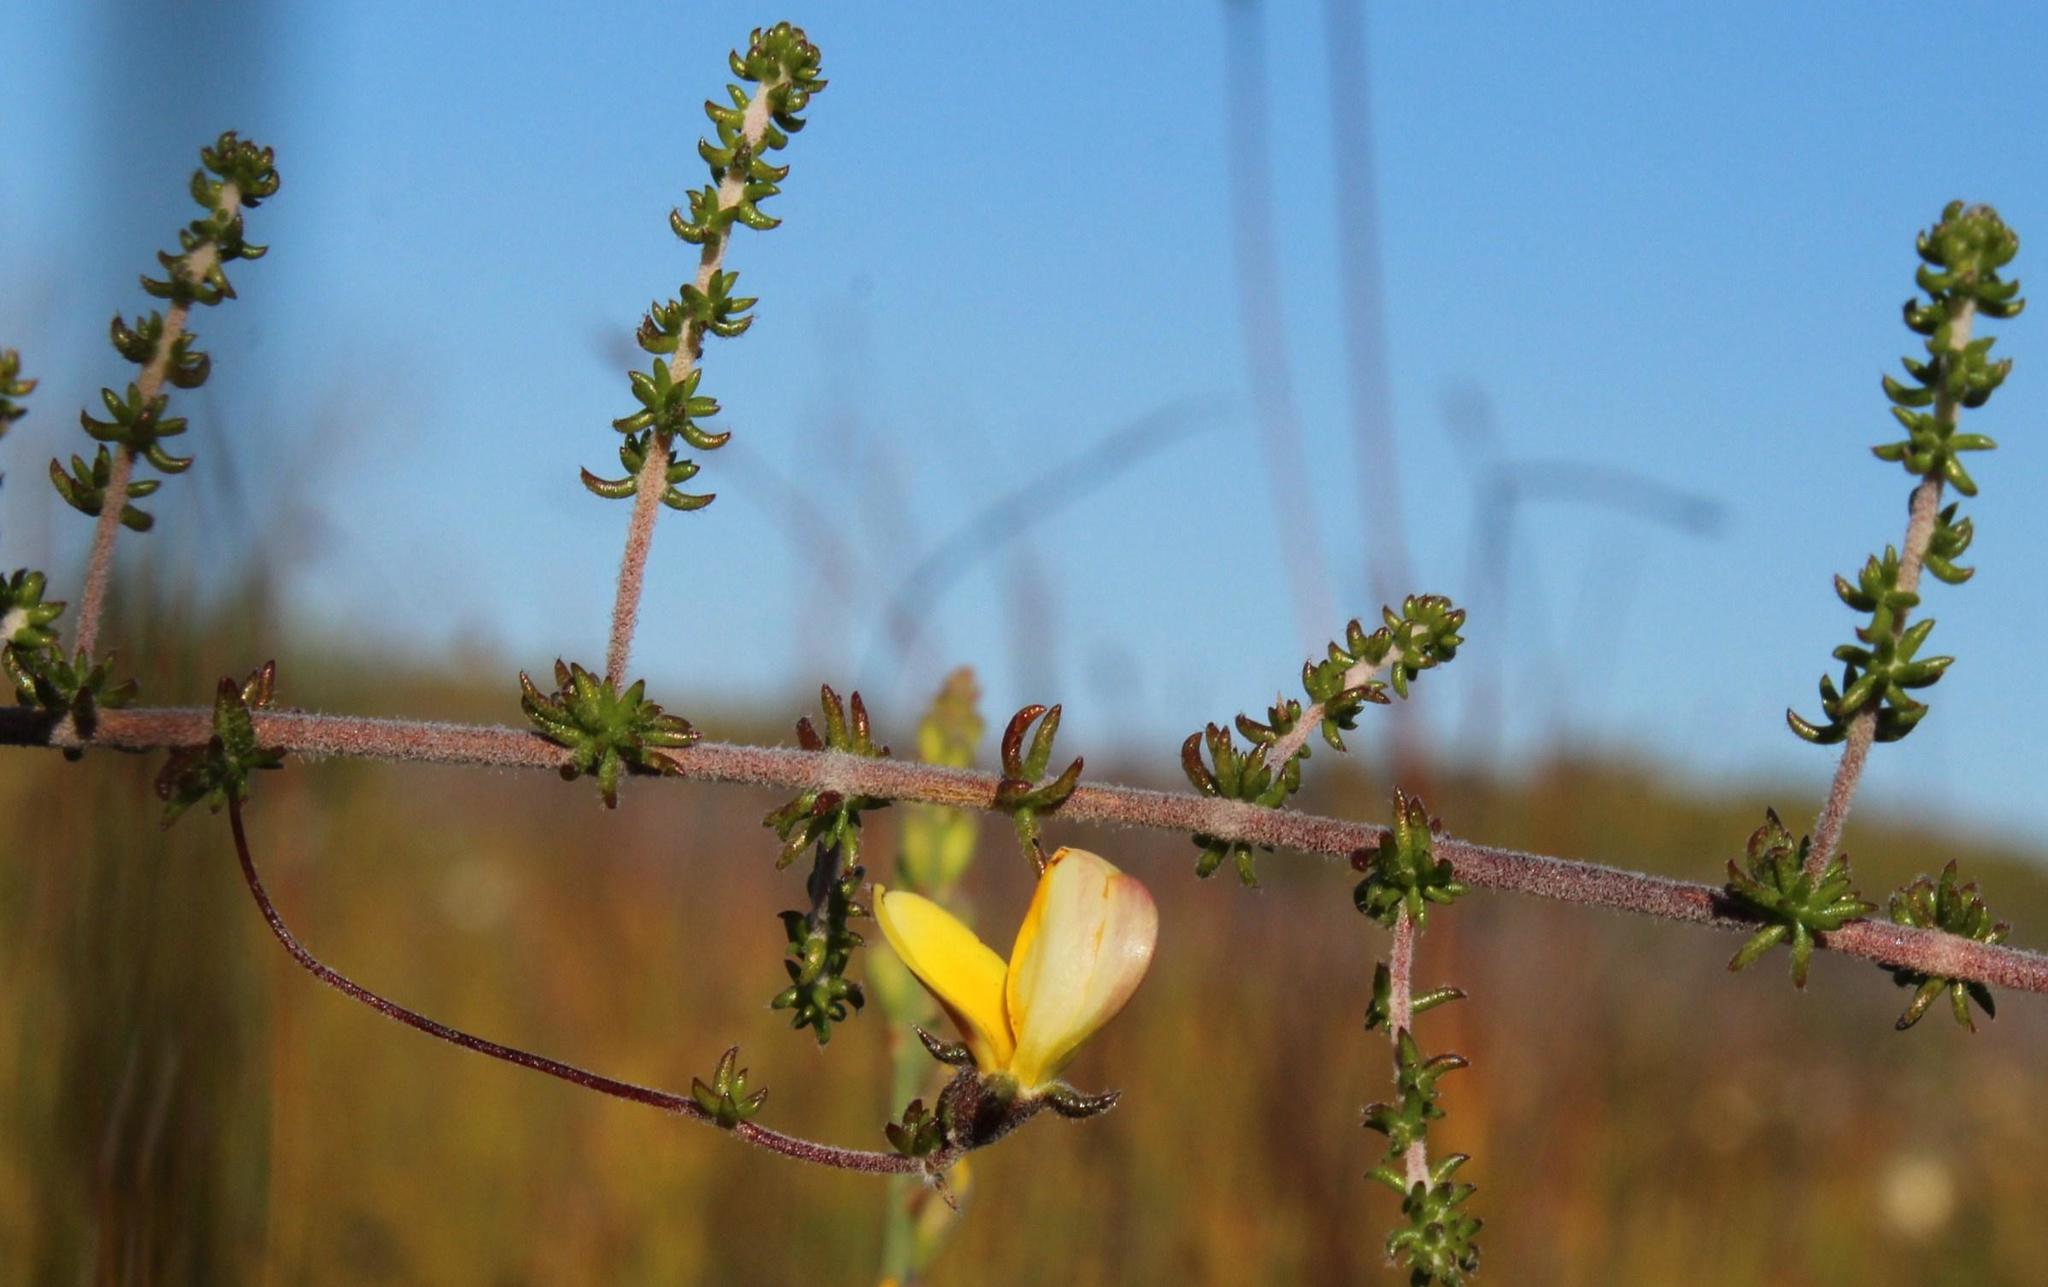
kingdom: Plantae
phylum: Tracheophyta
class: Magnoliopsida
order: Fabales
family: Fabaceae
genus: Aspalathus
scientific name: Aspalathus retroflexa
